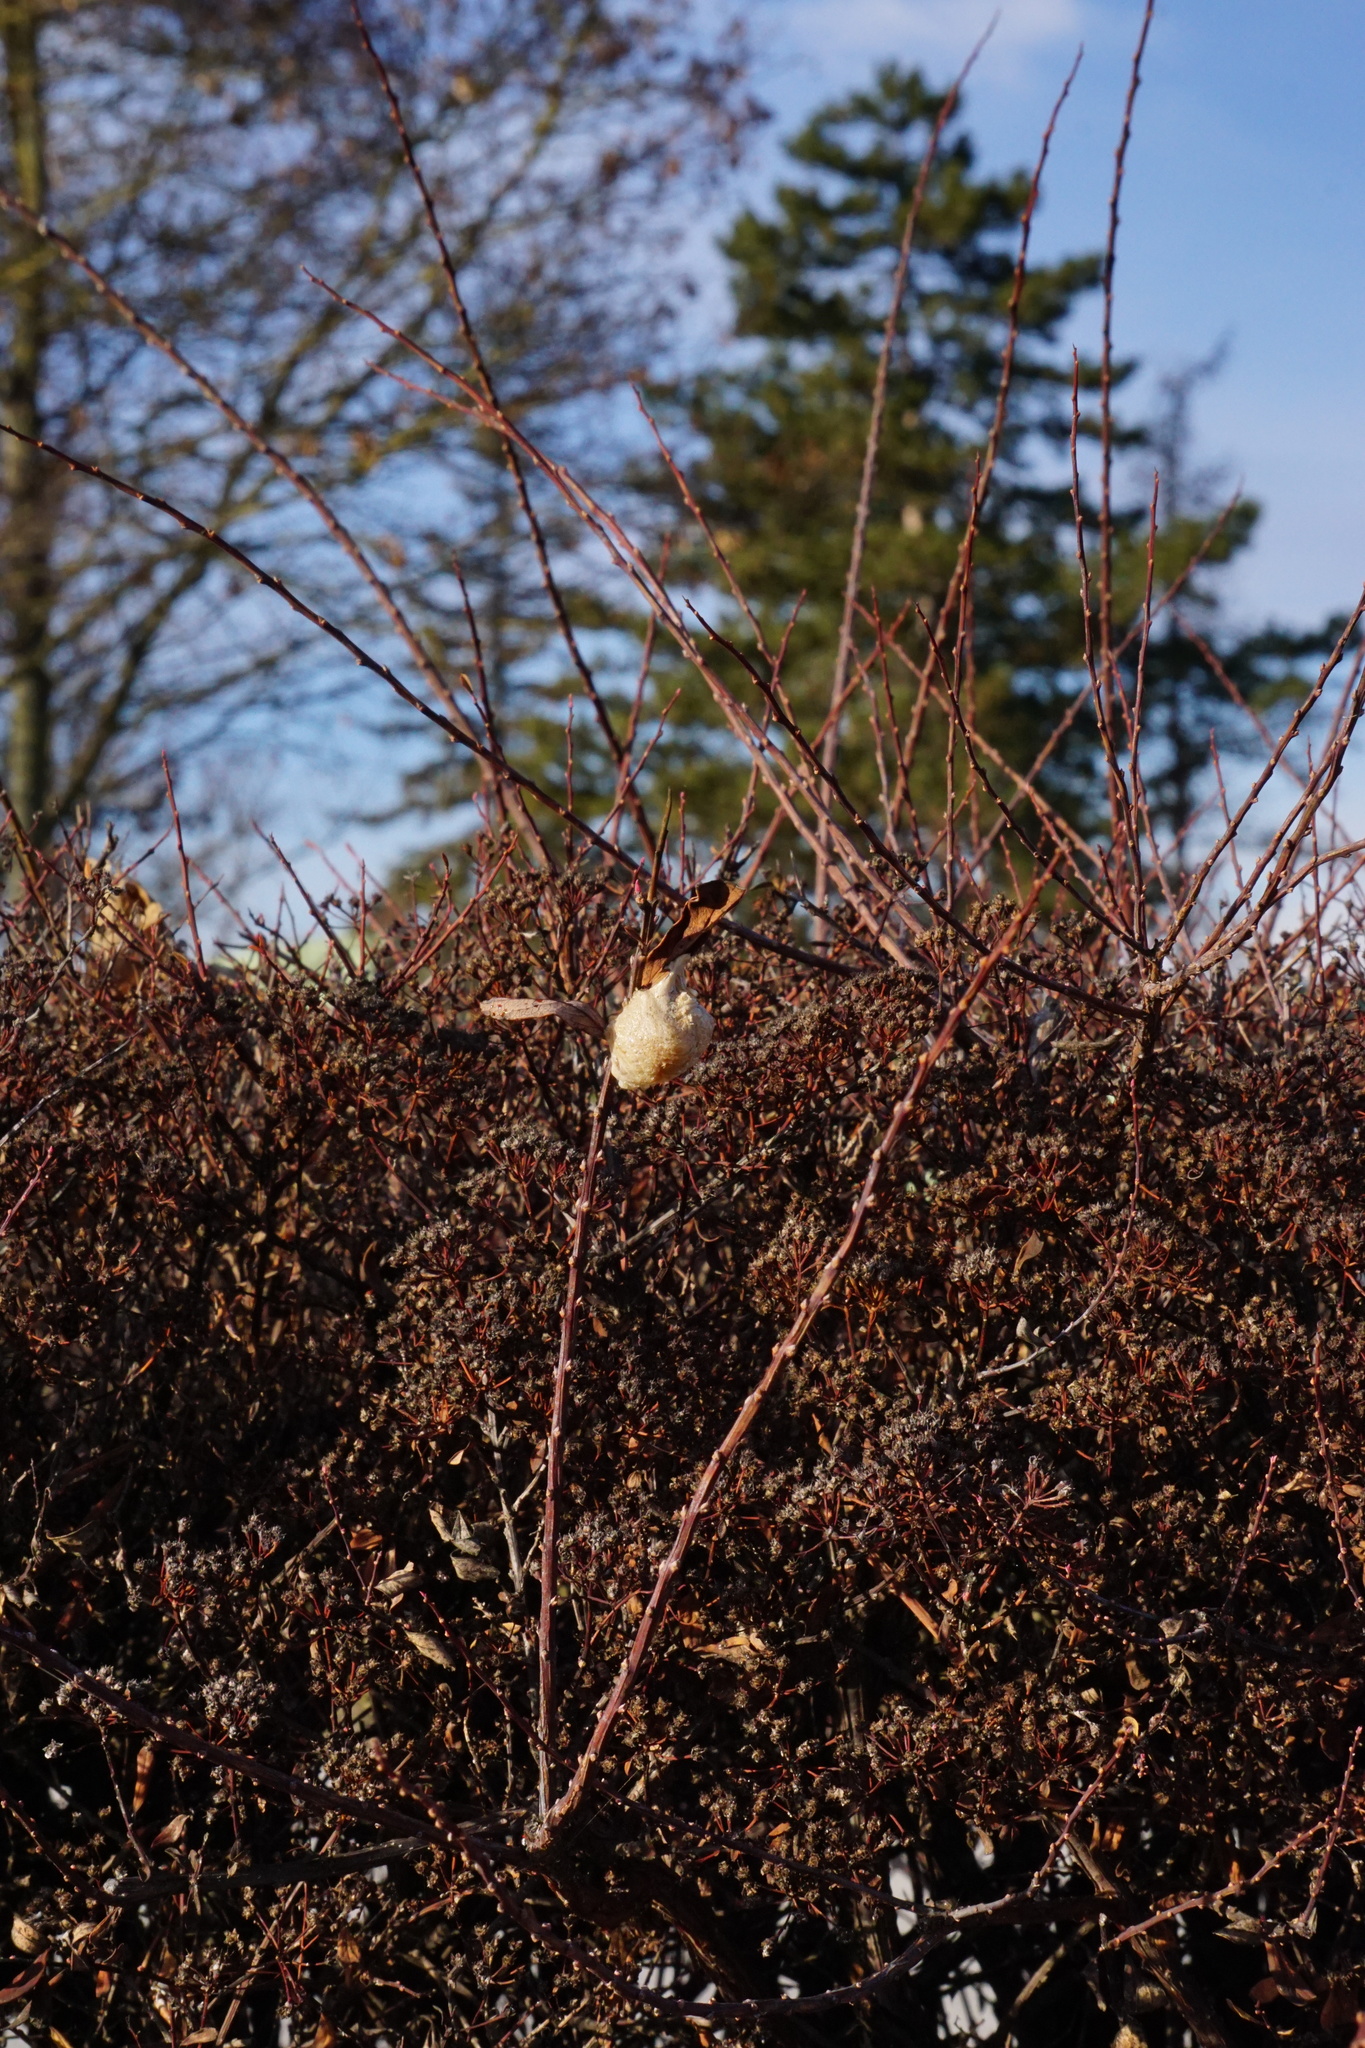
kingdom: Animalia
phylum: Arthropoda
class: Insecta
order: Mantodea
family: Mantidae
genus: Mantis
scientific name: Mantis religiosa
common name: Praying mantis
